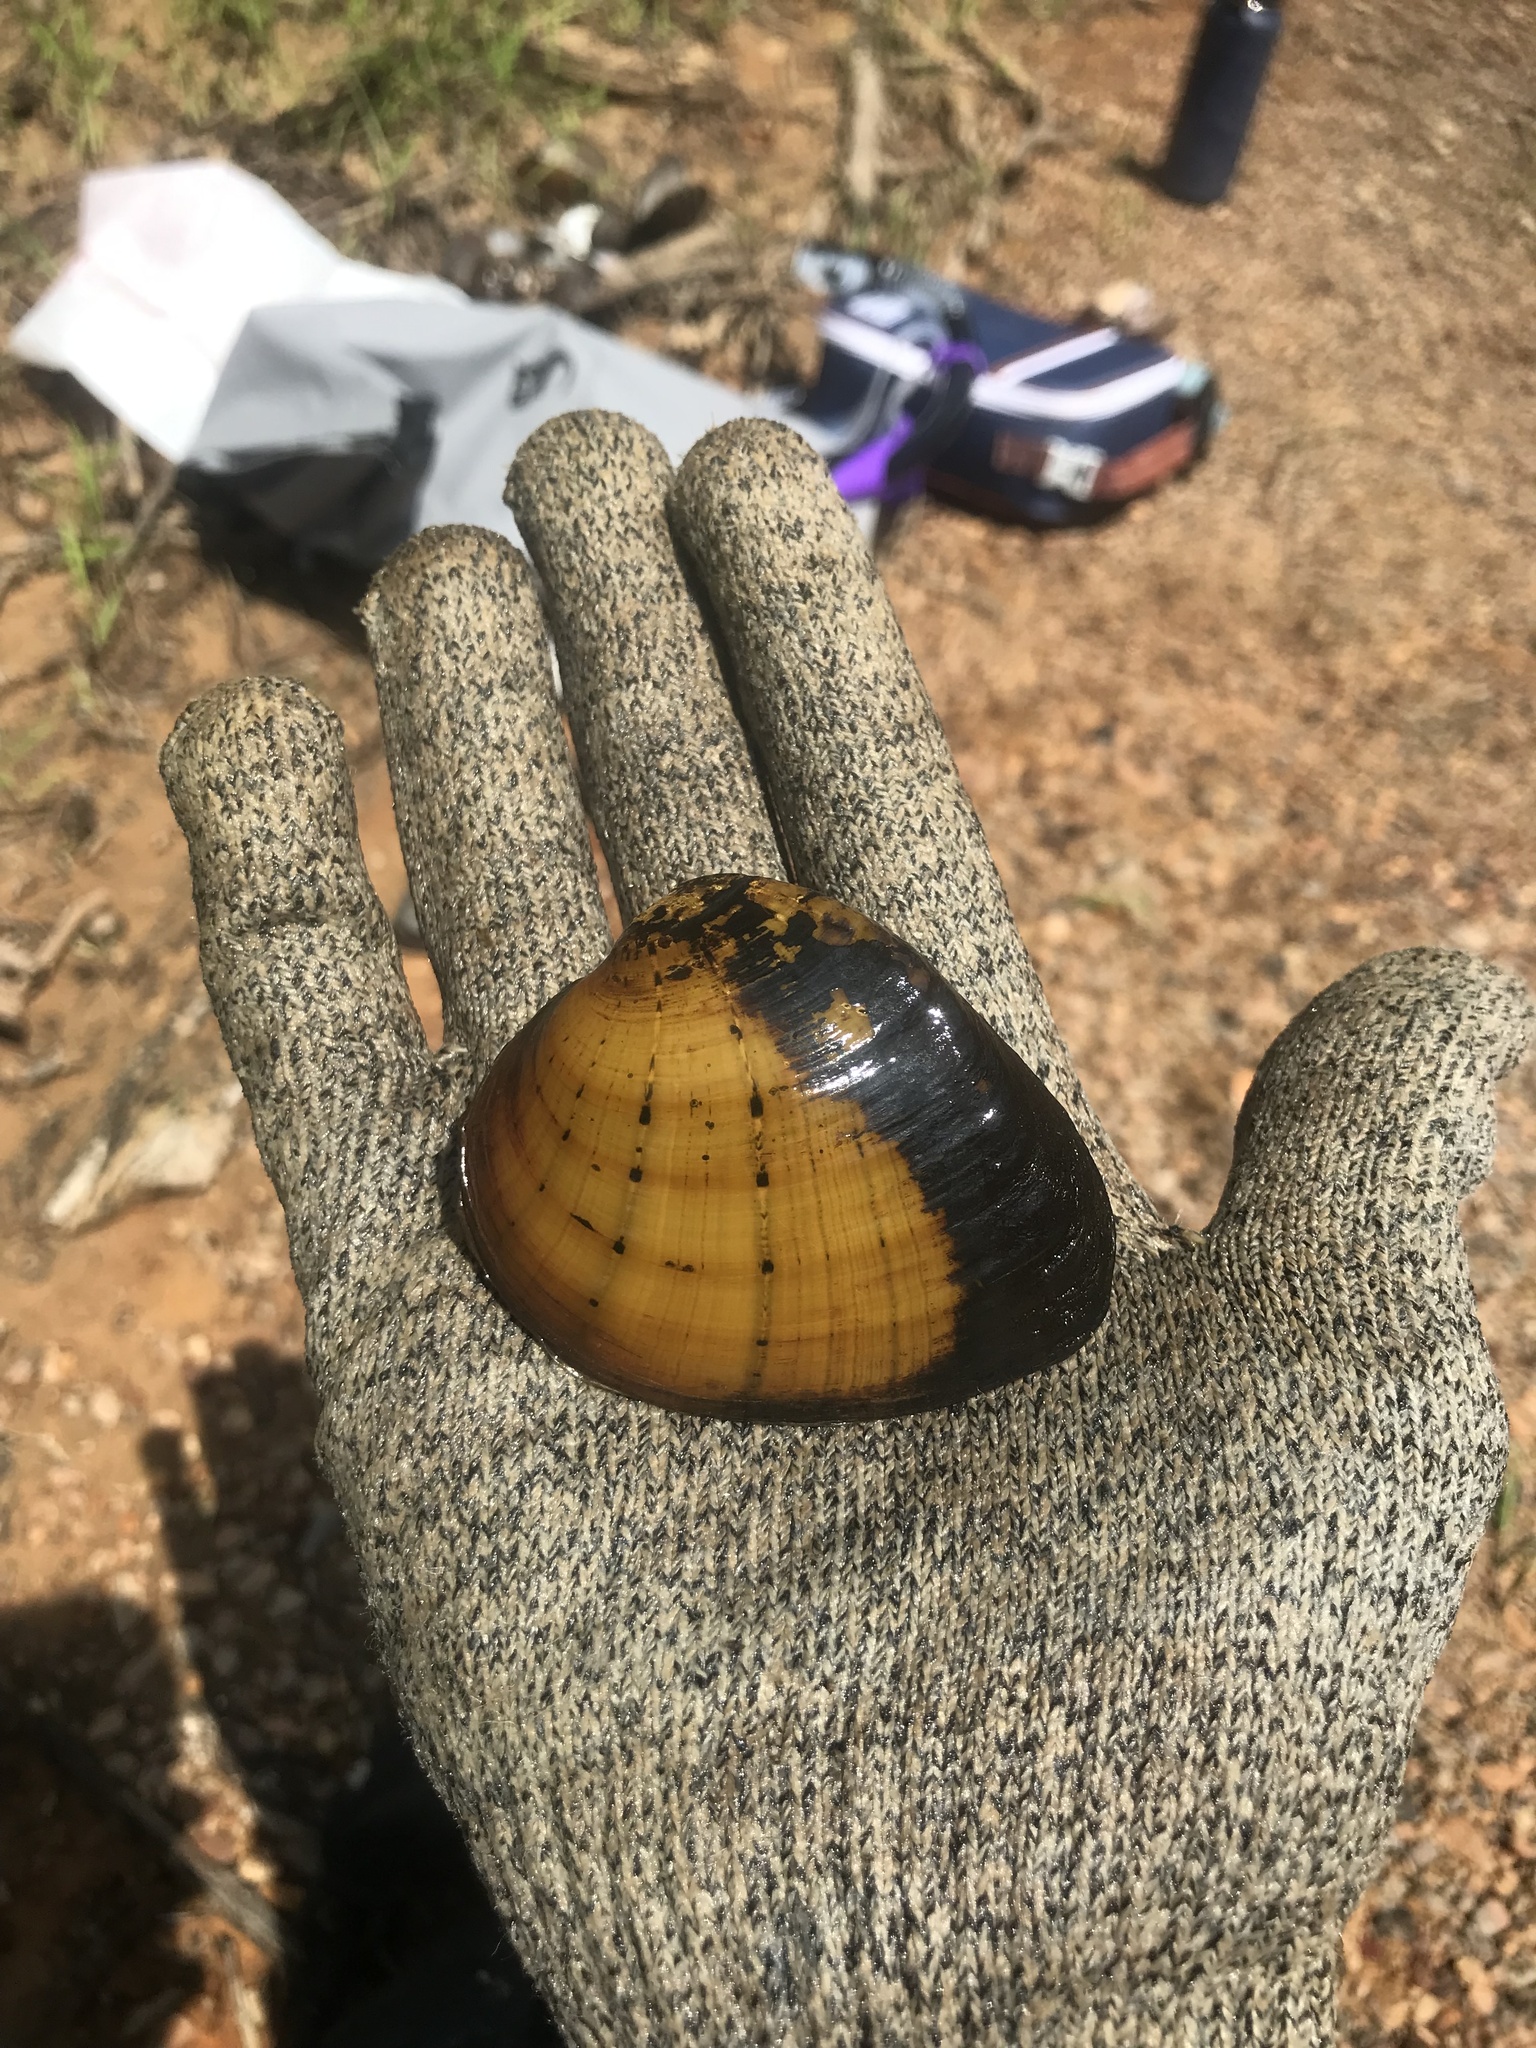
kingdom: Animalia
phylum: Mollusca
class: Bivalvia
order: Unionida
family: Unionidae
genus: Ellipsaria
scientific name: Ellipsaria lineolata
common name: Butterfly
